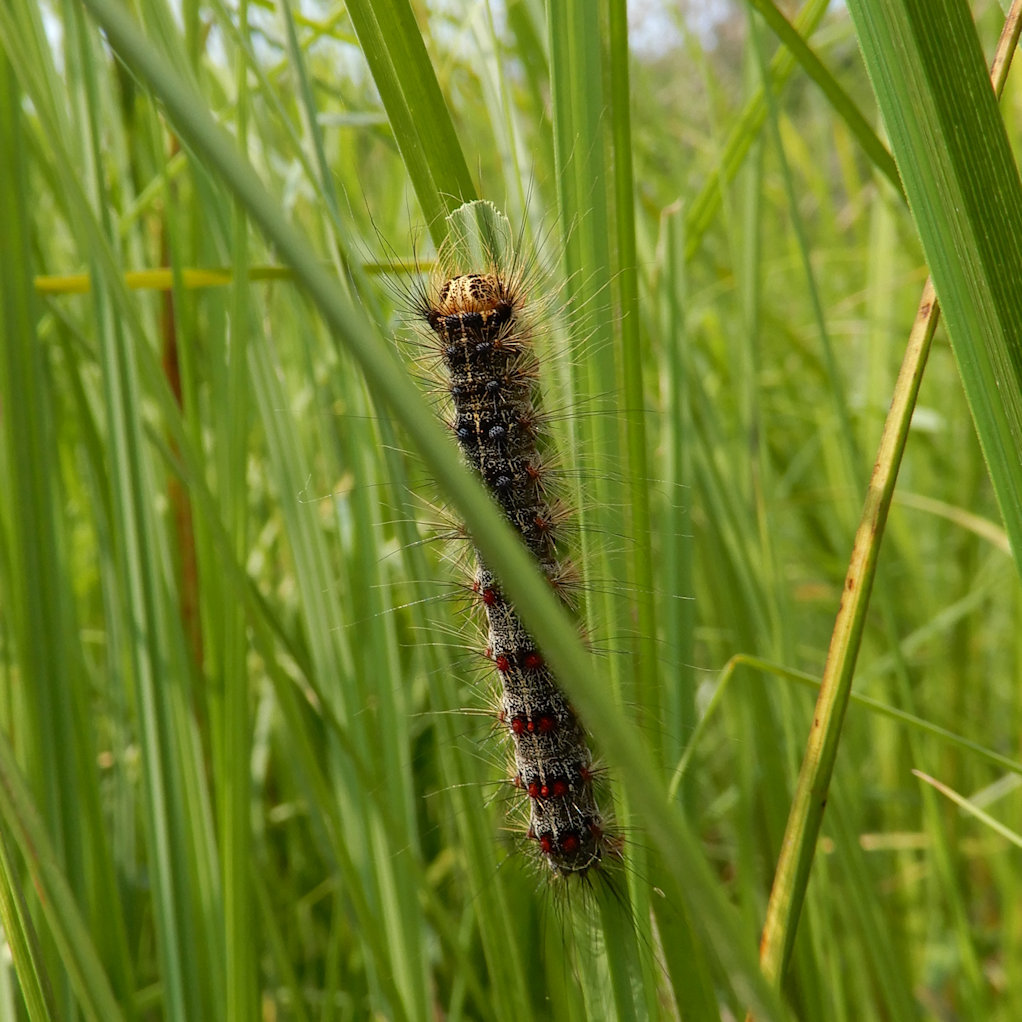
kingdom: Animalia
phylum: Arthropoda
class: Insecta
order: Lepidoptera
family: Erebidae
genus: Lymantria
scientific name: Lymantria dispar
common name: Gypsy moth
